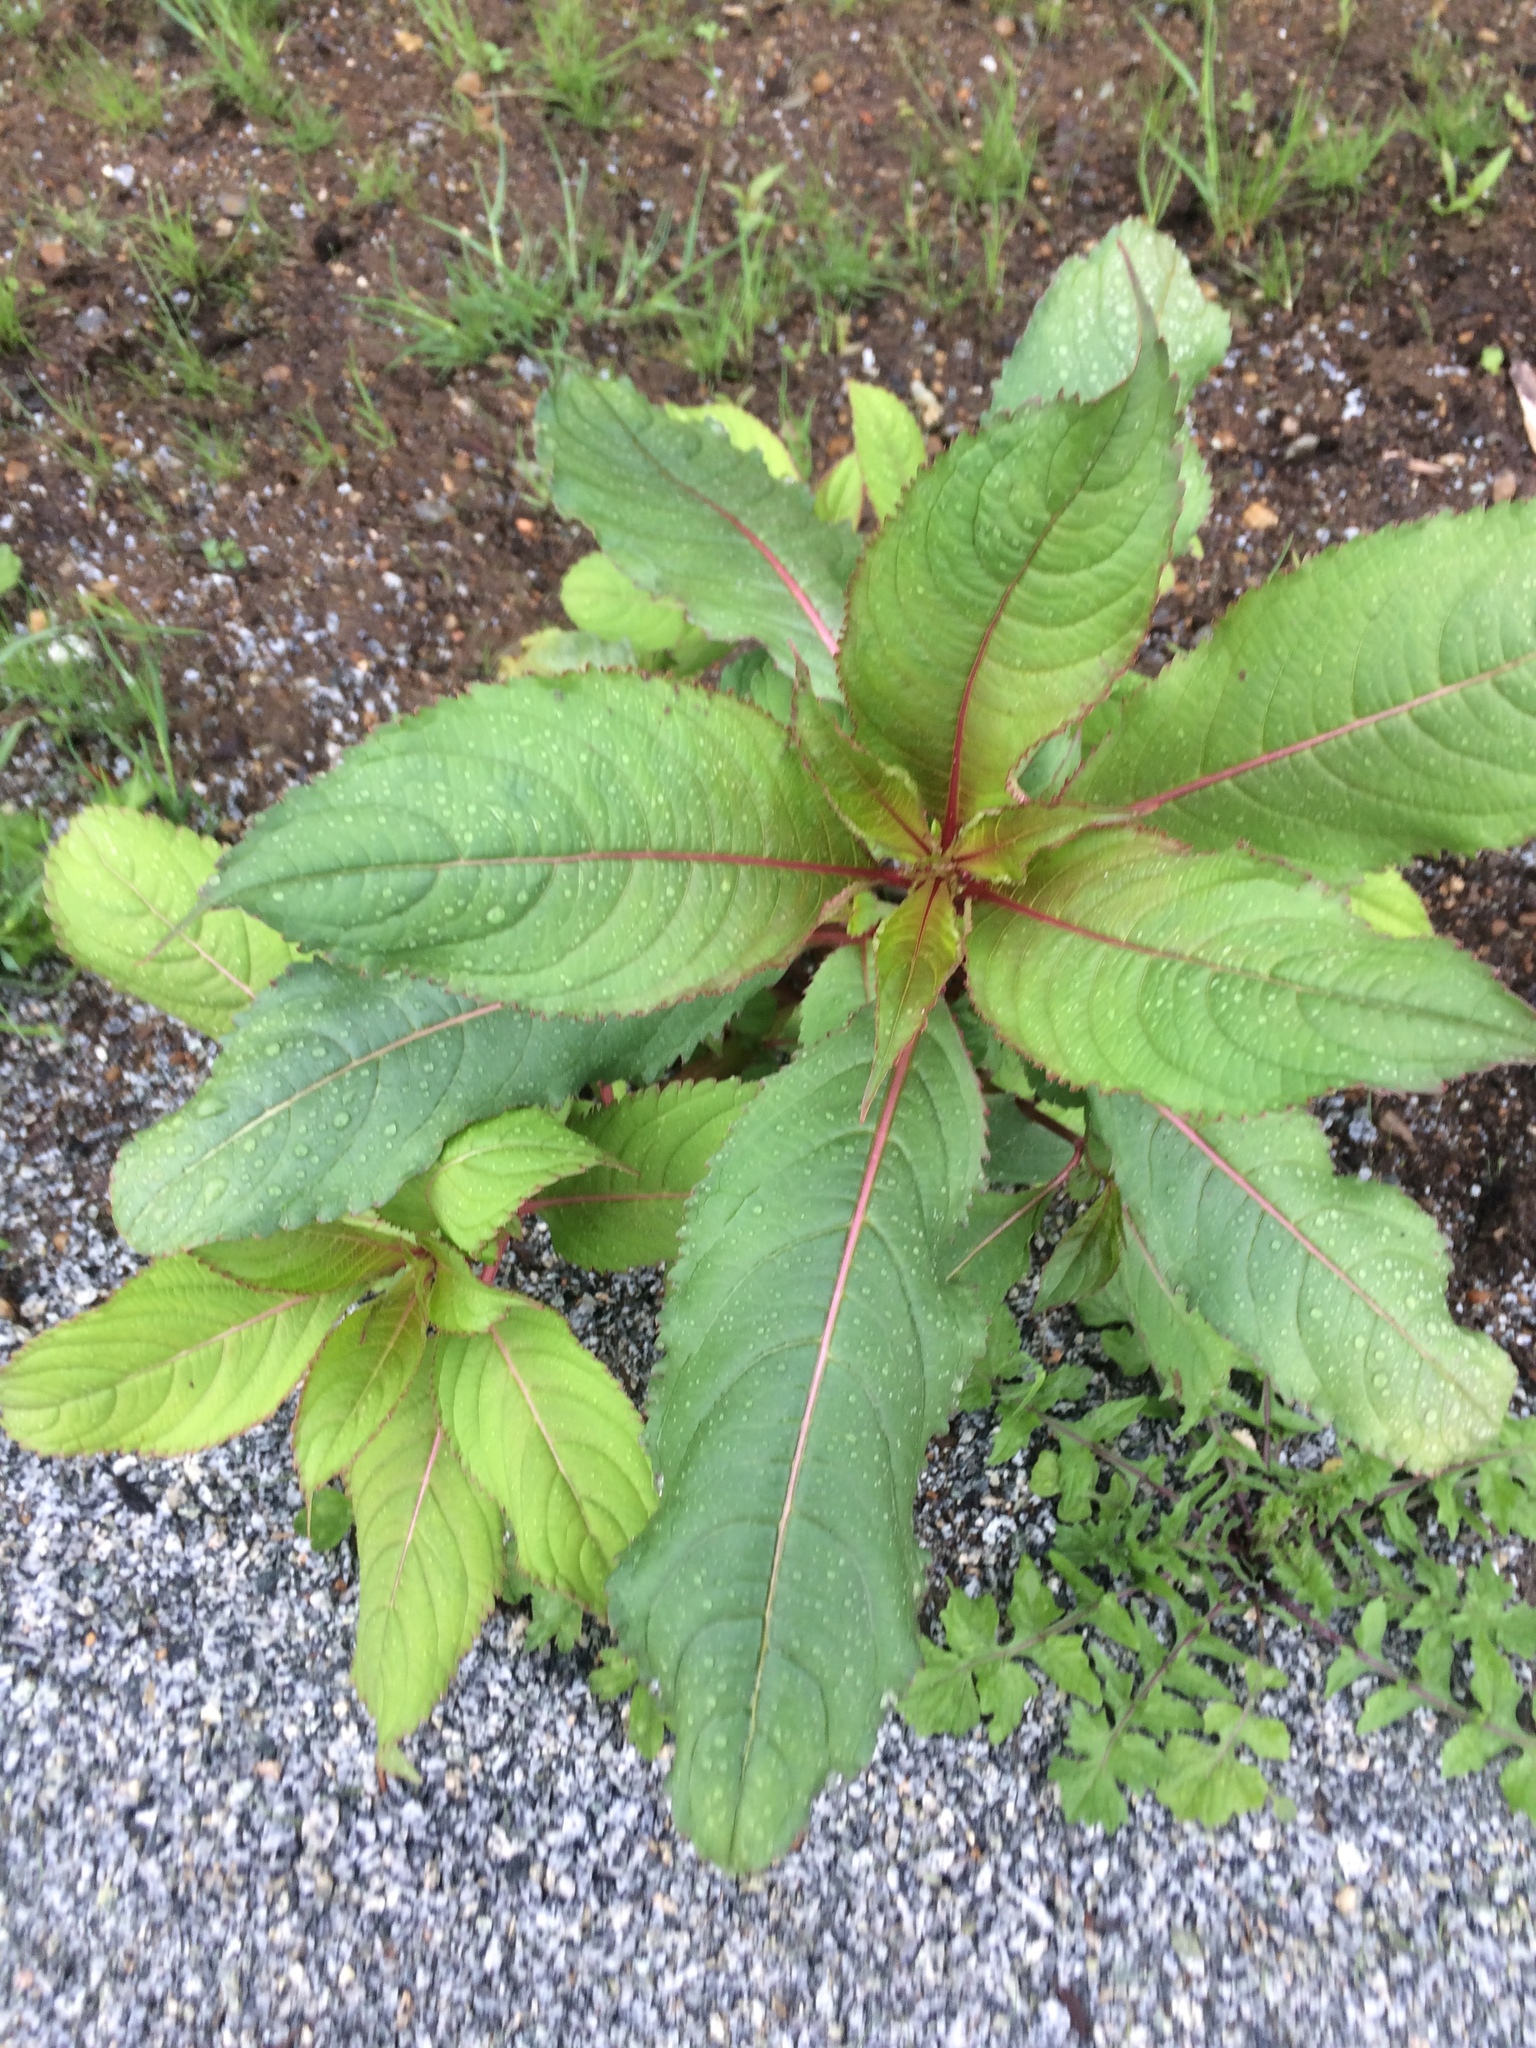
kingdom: Plantae
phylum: Tracheophyta
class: Magnoliopsida
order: Ericales
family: Balsaminaceae
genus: Impatiens
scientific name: Impatiens glandulifera
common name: Himalayan balsam
